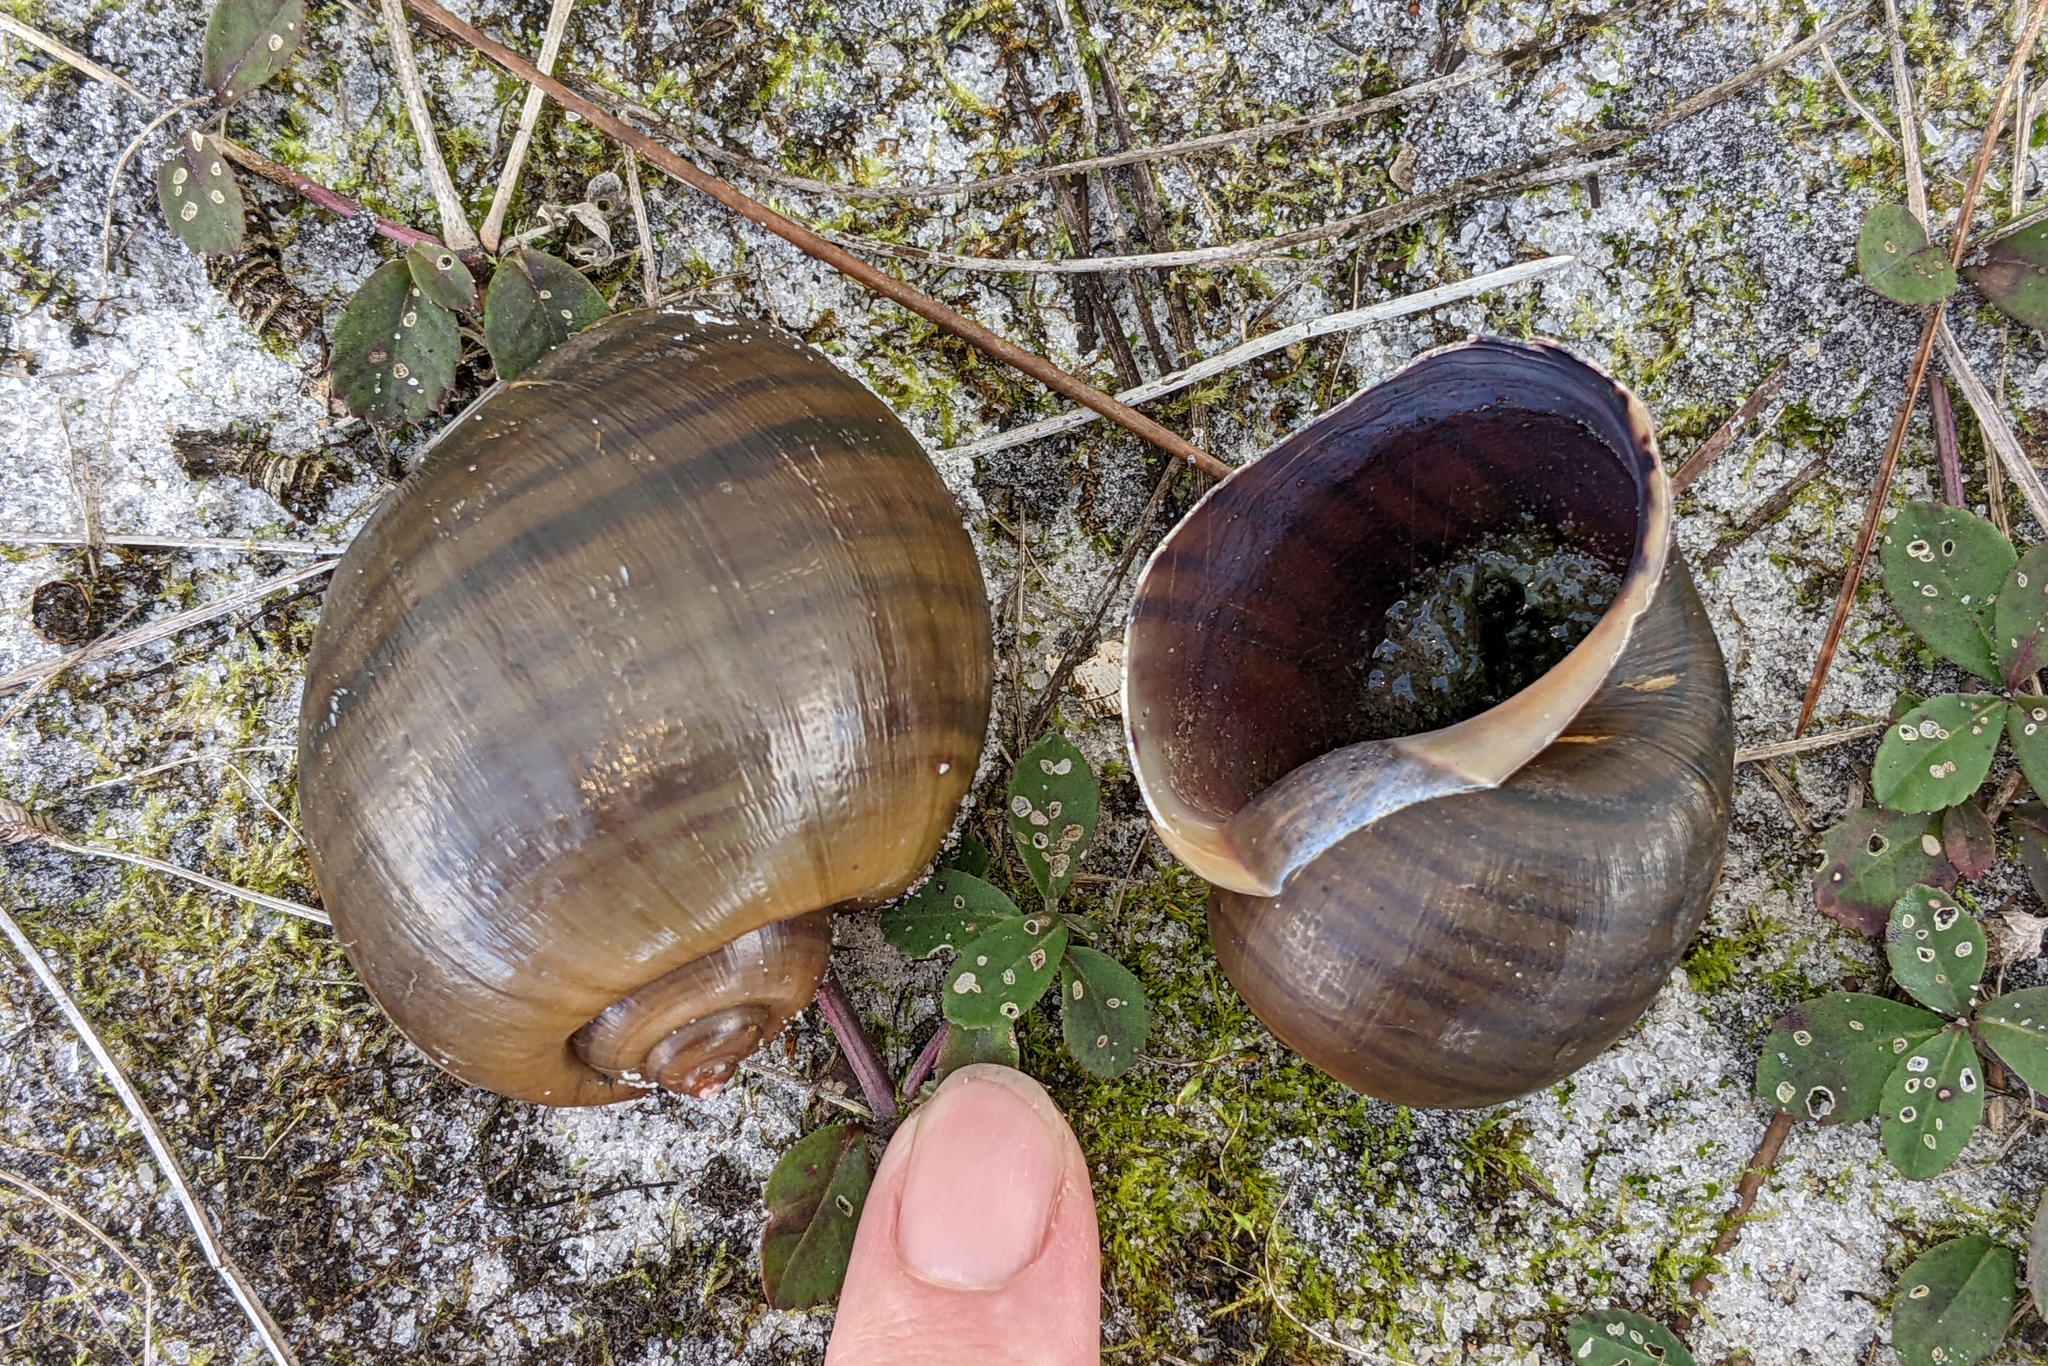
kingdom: Animalia
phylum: Mollusca
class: Gastropoda
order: Architaenioglossa
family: Ampullariidae
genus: Pomacea
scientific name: Pomacea maculata
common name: Giant applesnail
